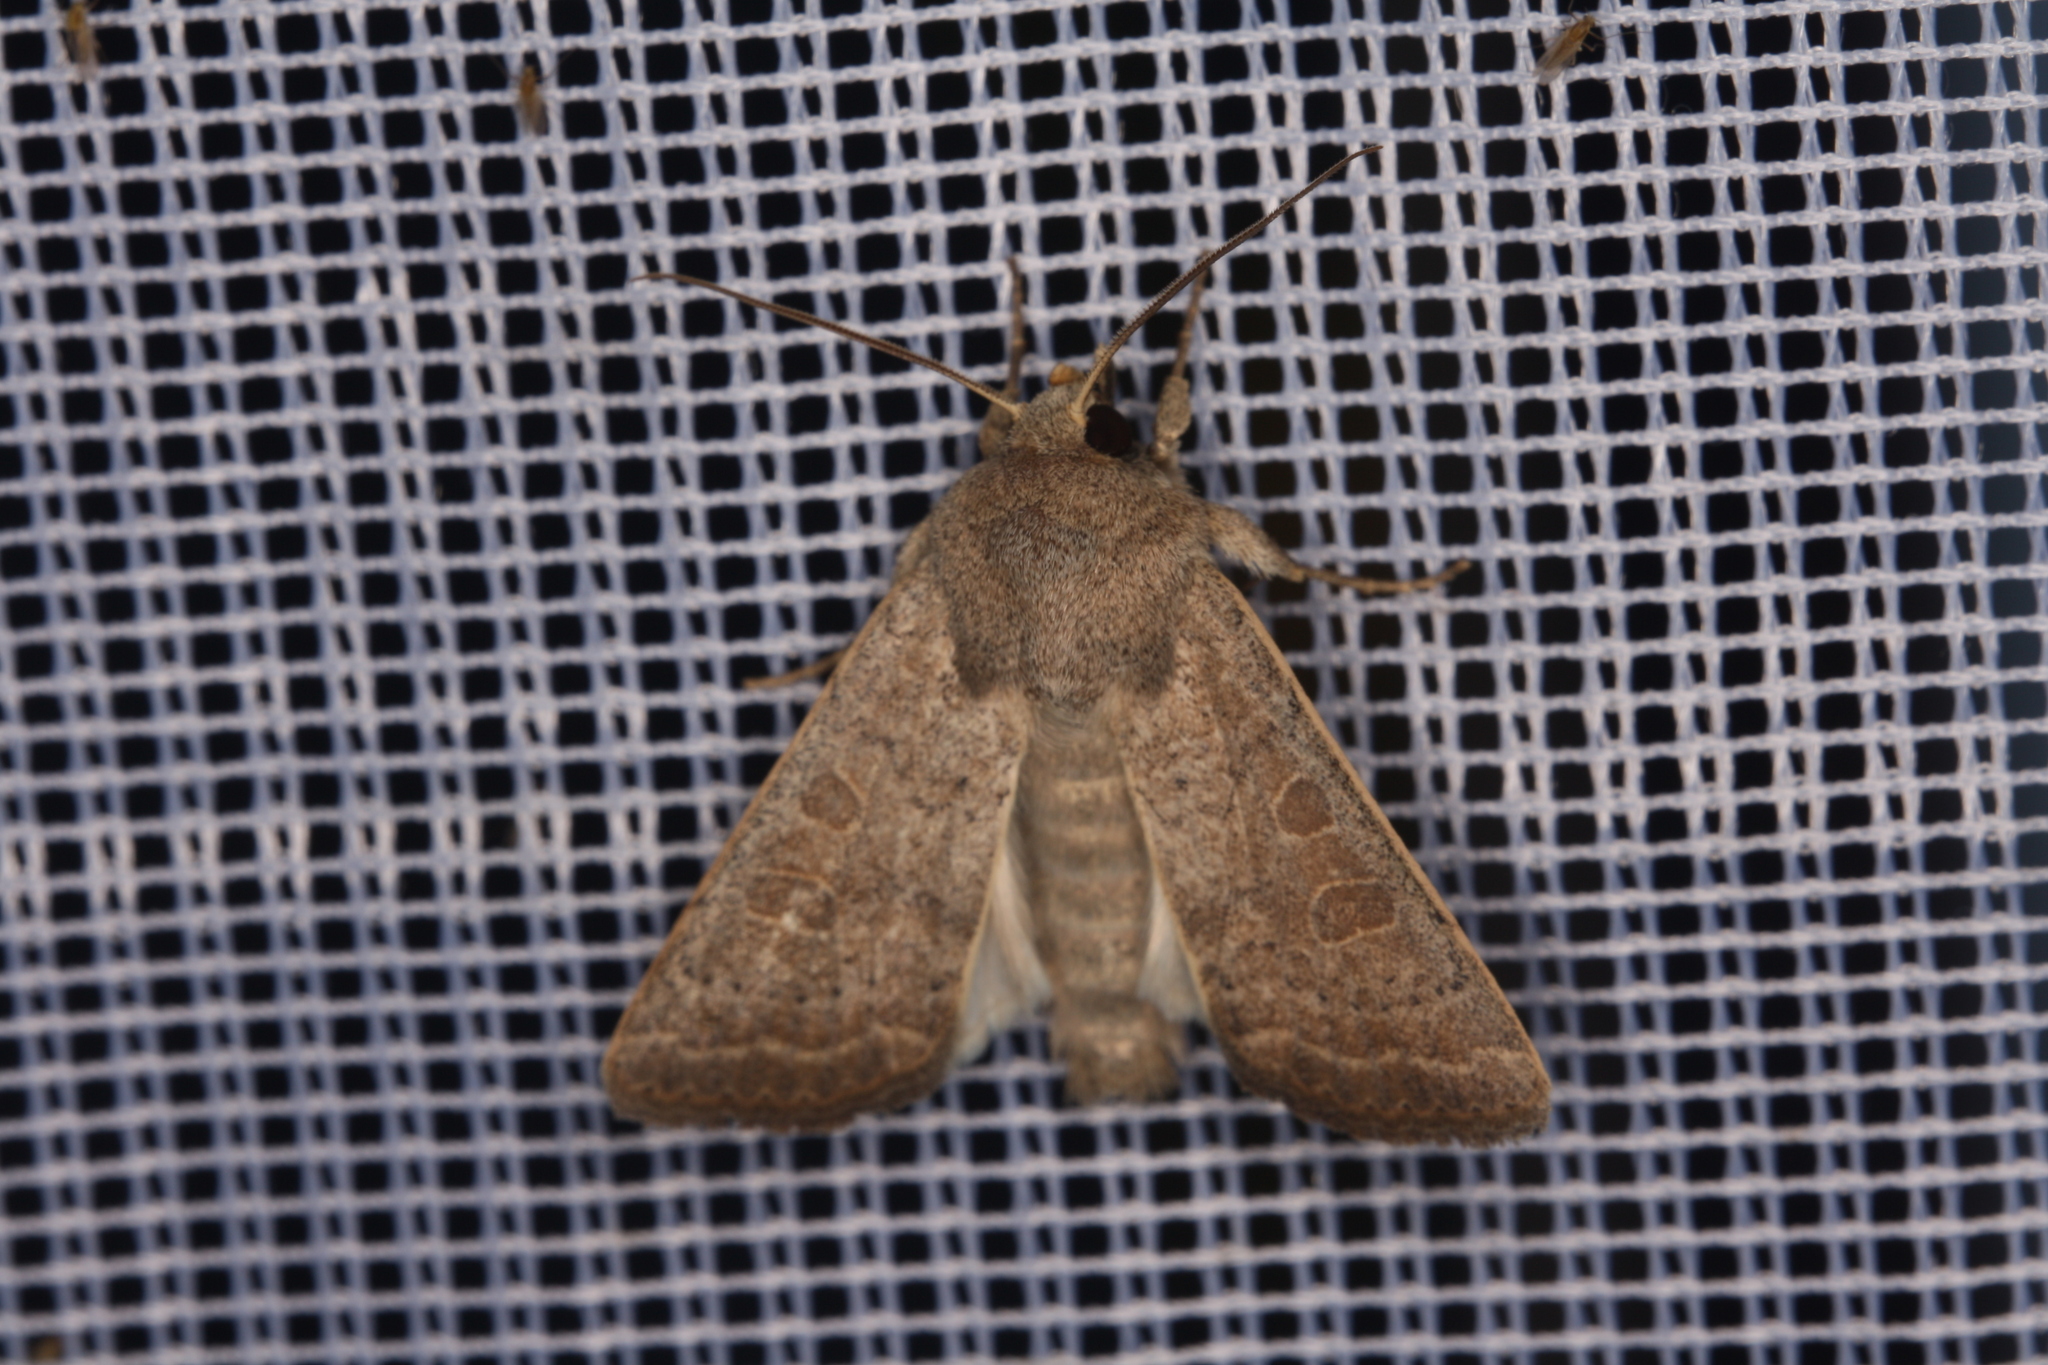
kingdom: Animalia
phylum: Arthropoda
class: Insecta
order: Lepidoptera
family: Noctuidae
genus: Hoplodrina
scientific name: Hoplodrina ambigua
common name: Vine's rustic
